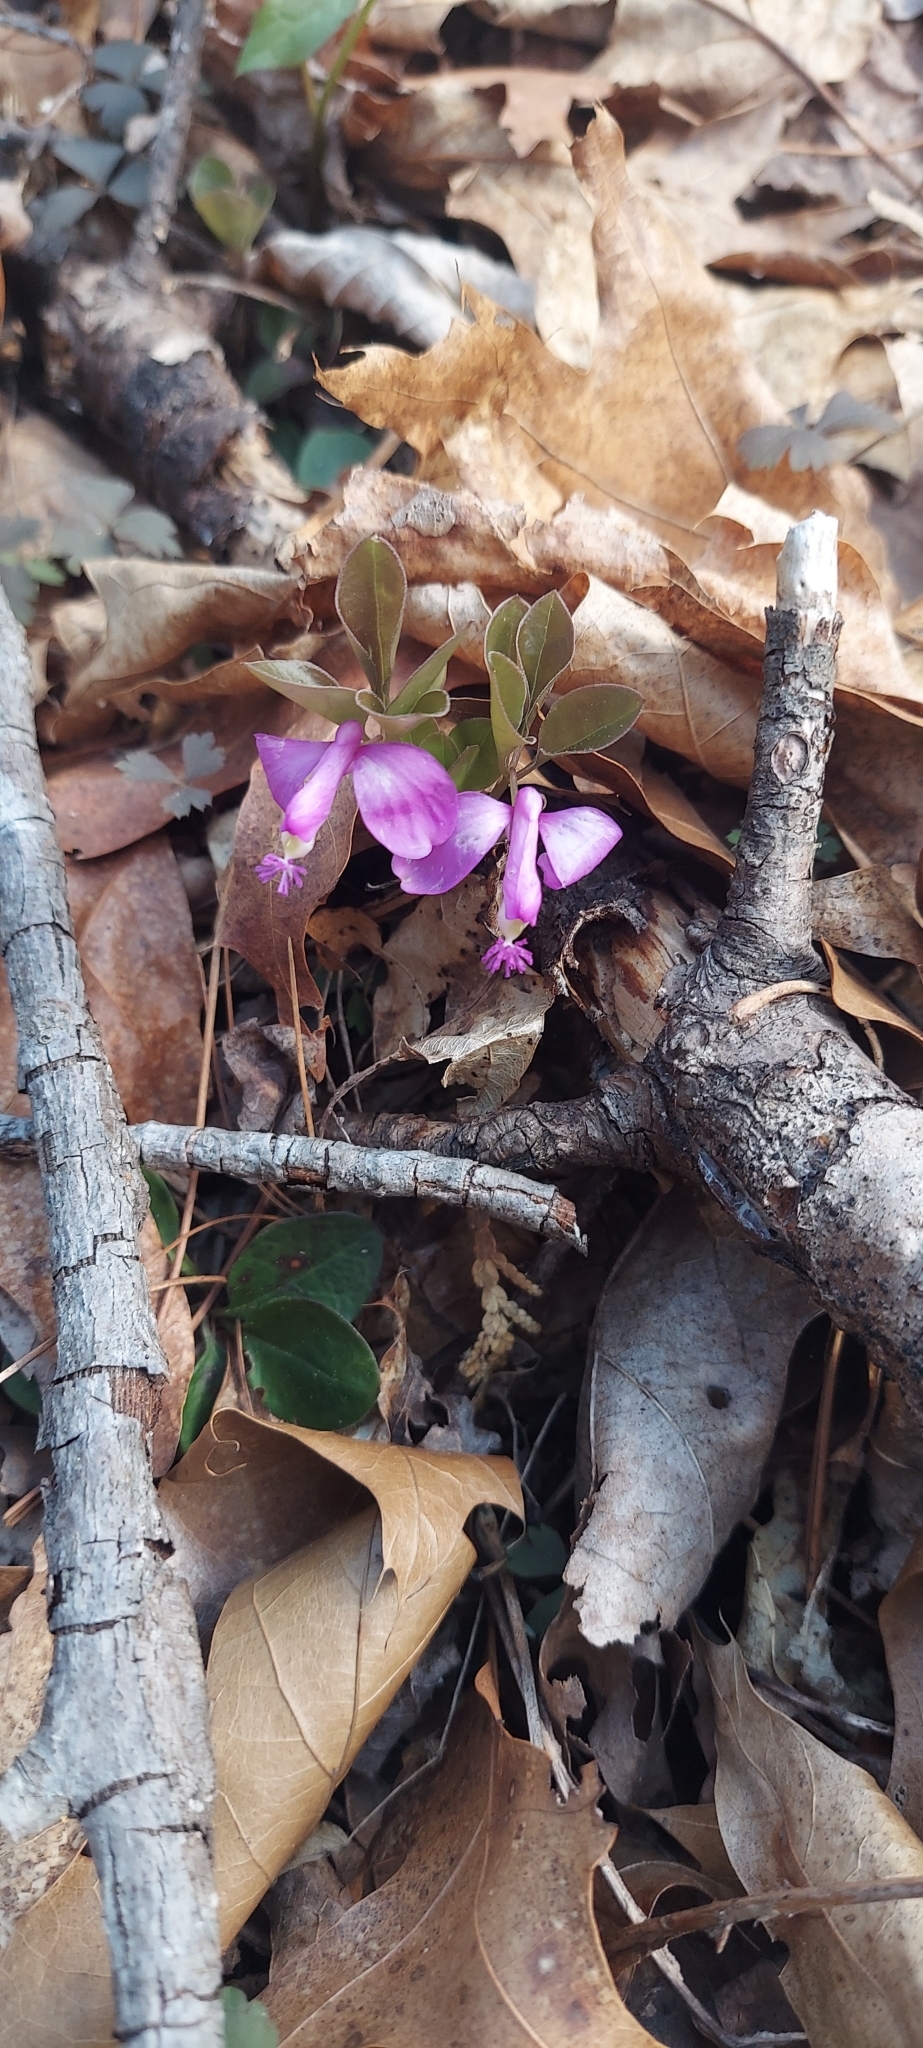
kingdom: Plantae
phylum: Tracheophyta
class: Magnoliopsida
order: Fabales
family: Polygalaceae
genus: Polygaloides
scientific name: Polygaloides paucifolia
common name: Bird-on-the-wing
